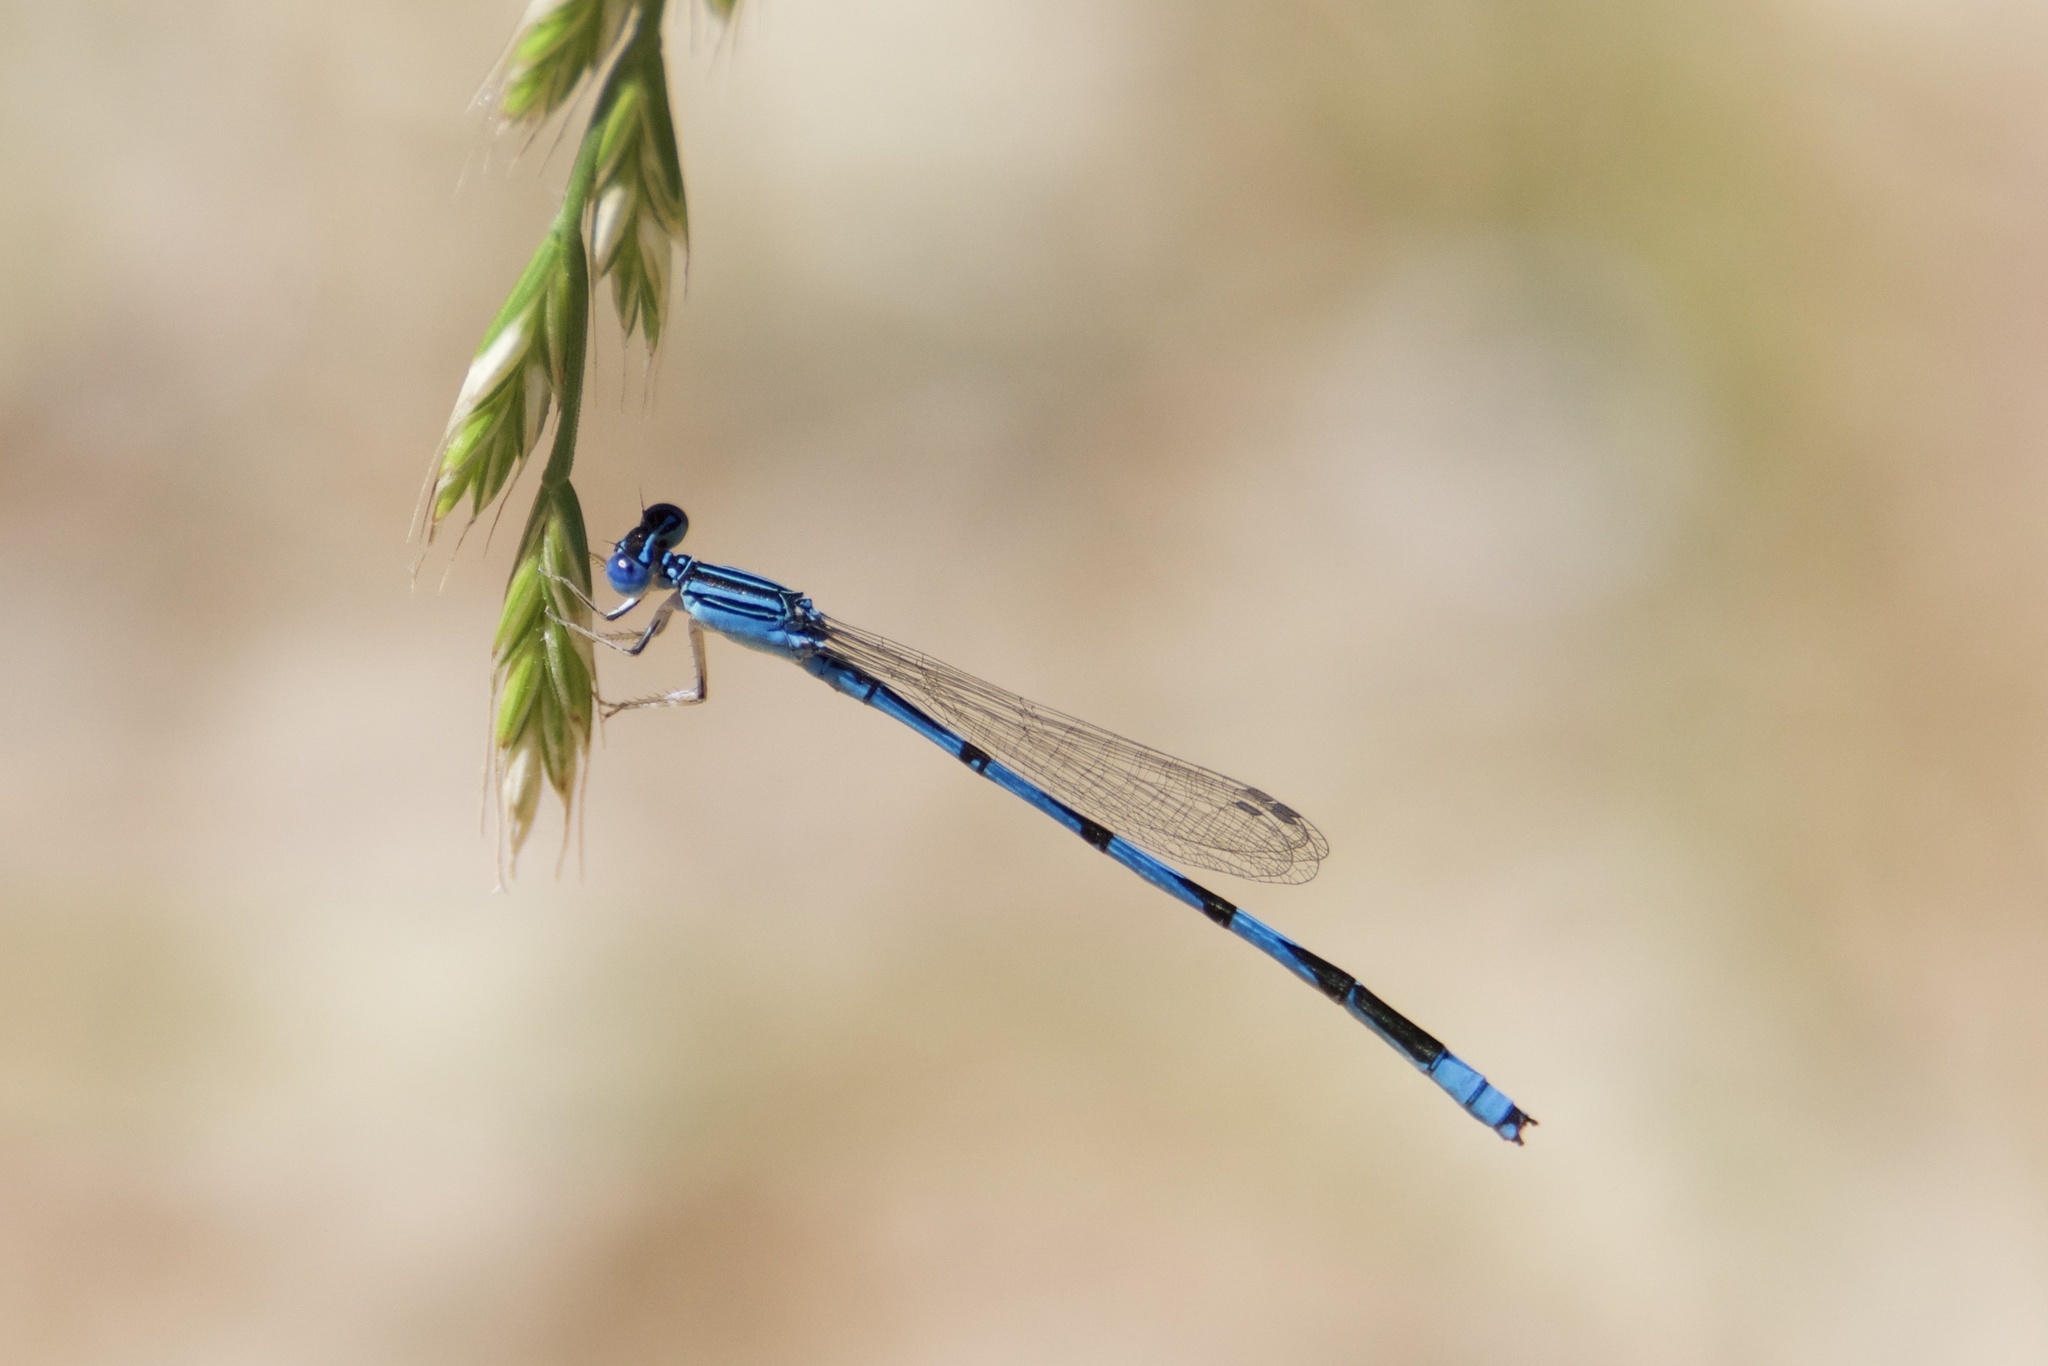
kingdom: Animalia
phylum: Arthropoda
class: Insecta
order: Odonata
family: Coenagrionidae
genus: Enallagma
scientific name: Enallagma basidens
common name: Double-striped bluet
